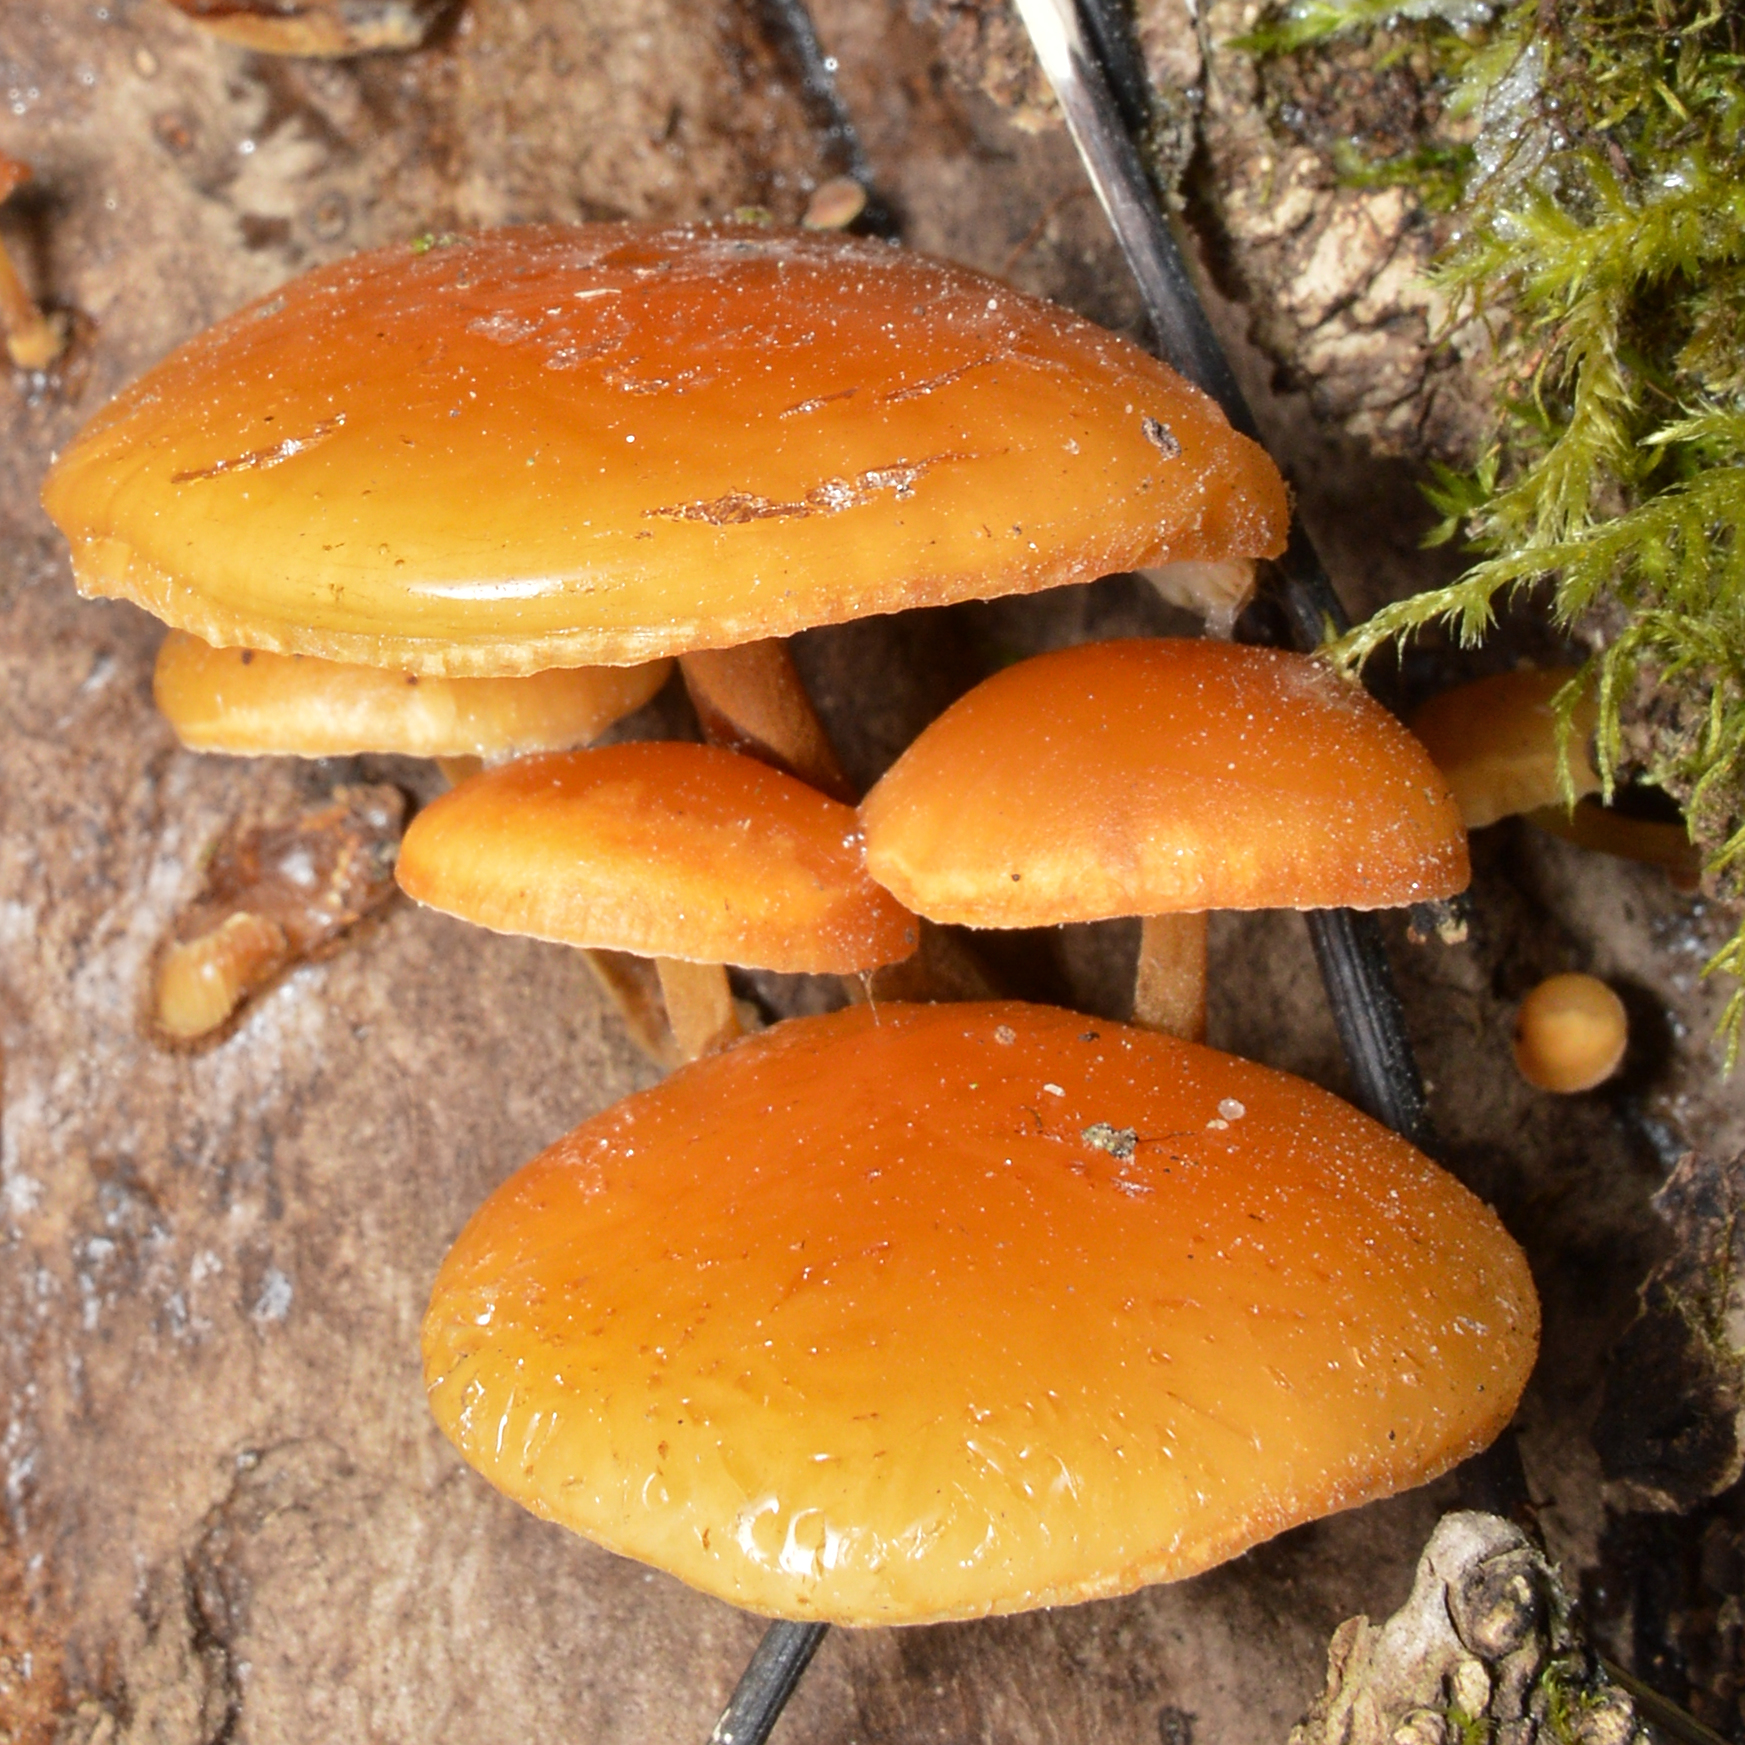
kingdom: Fungi
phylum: Basidiomycota
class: Agaricomycetes
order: Agaricales
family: Physalacriaceae
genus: Flammulina
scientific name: Flammulina
